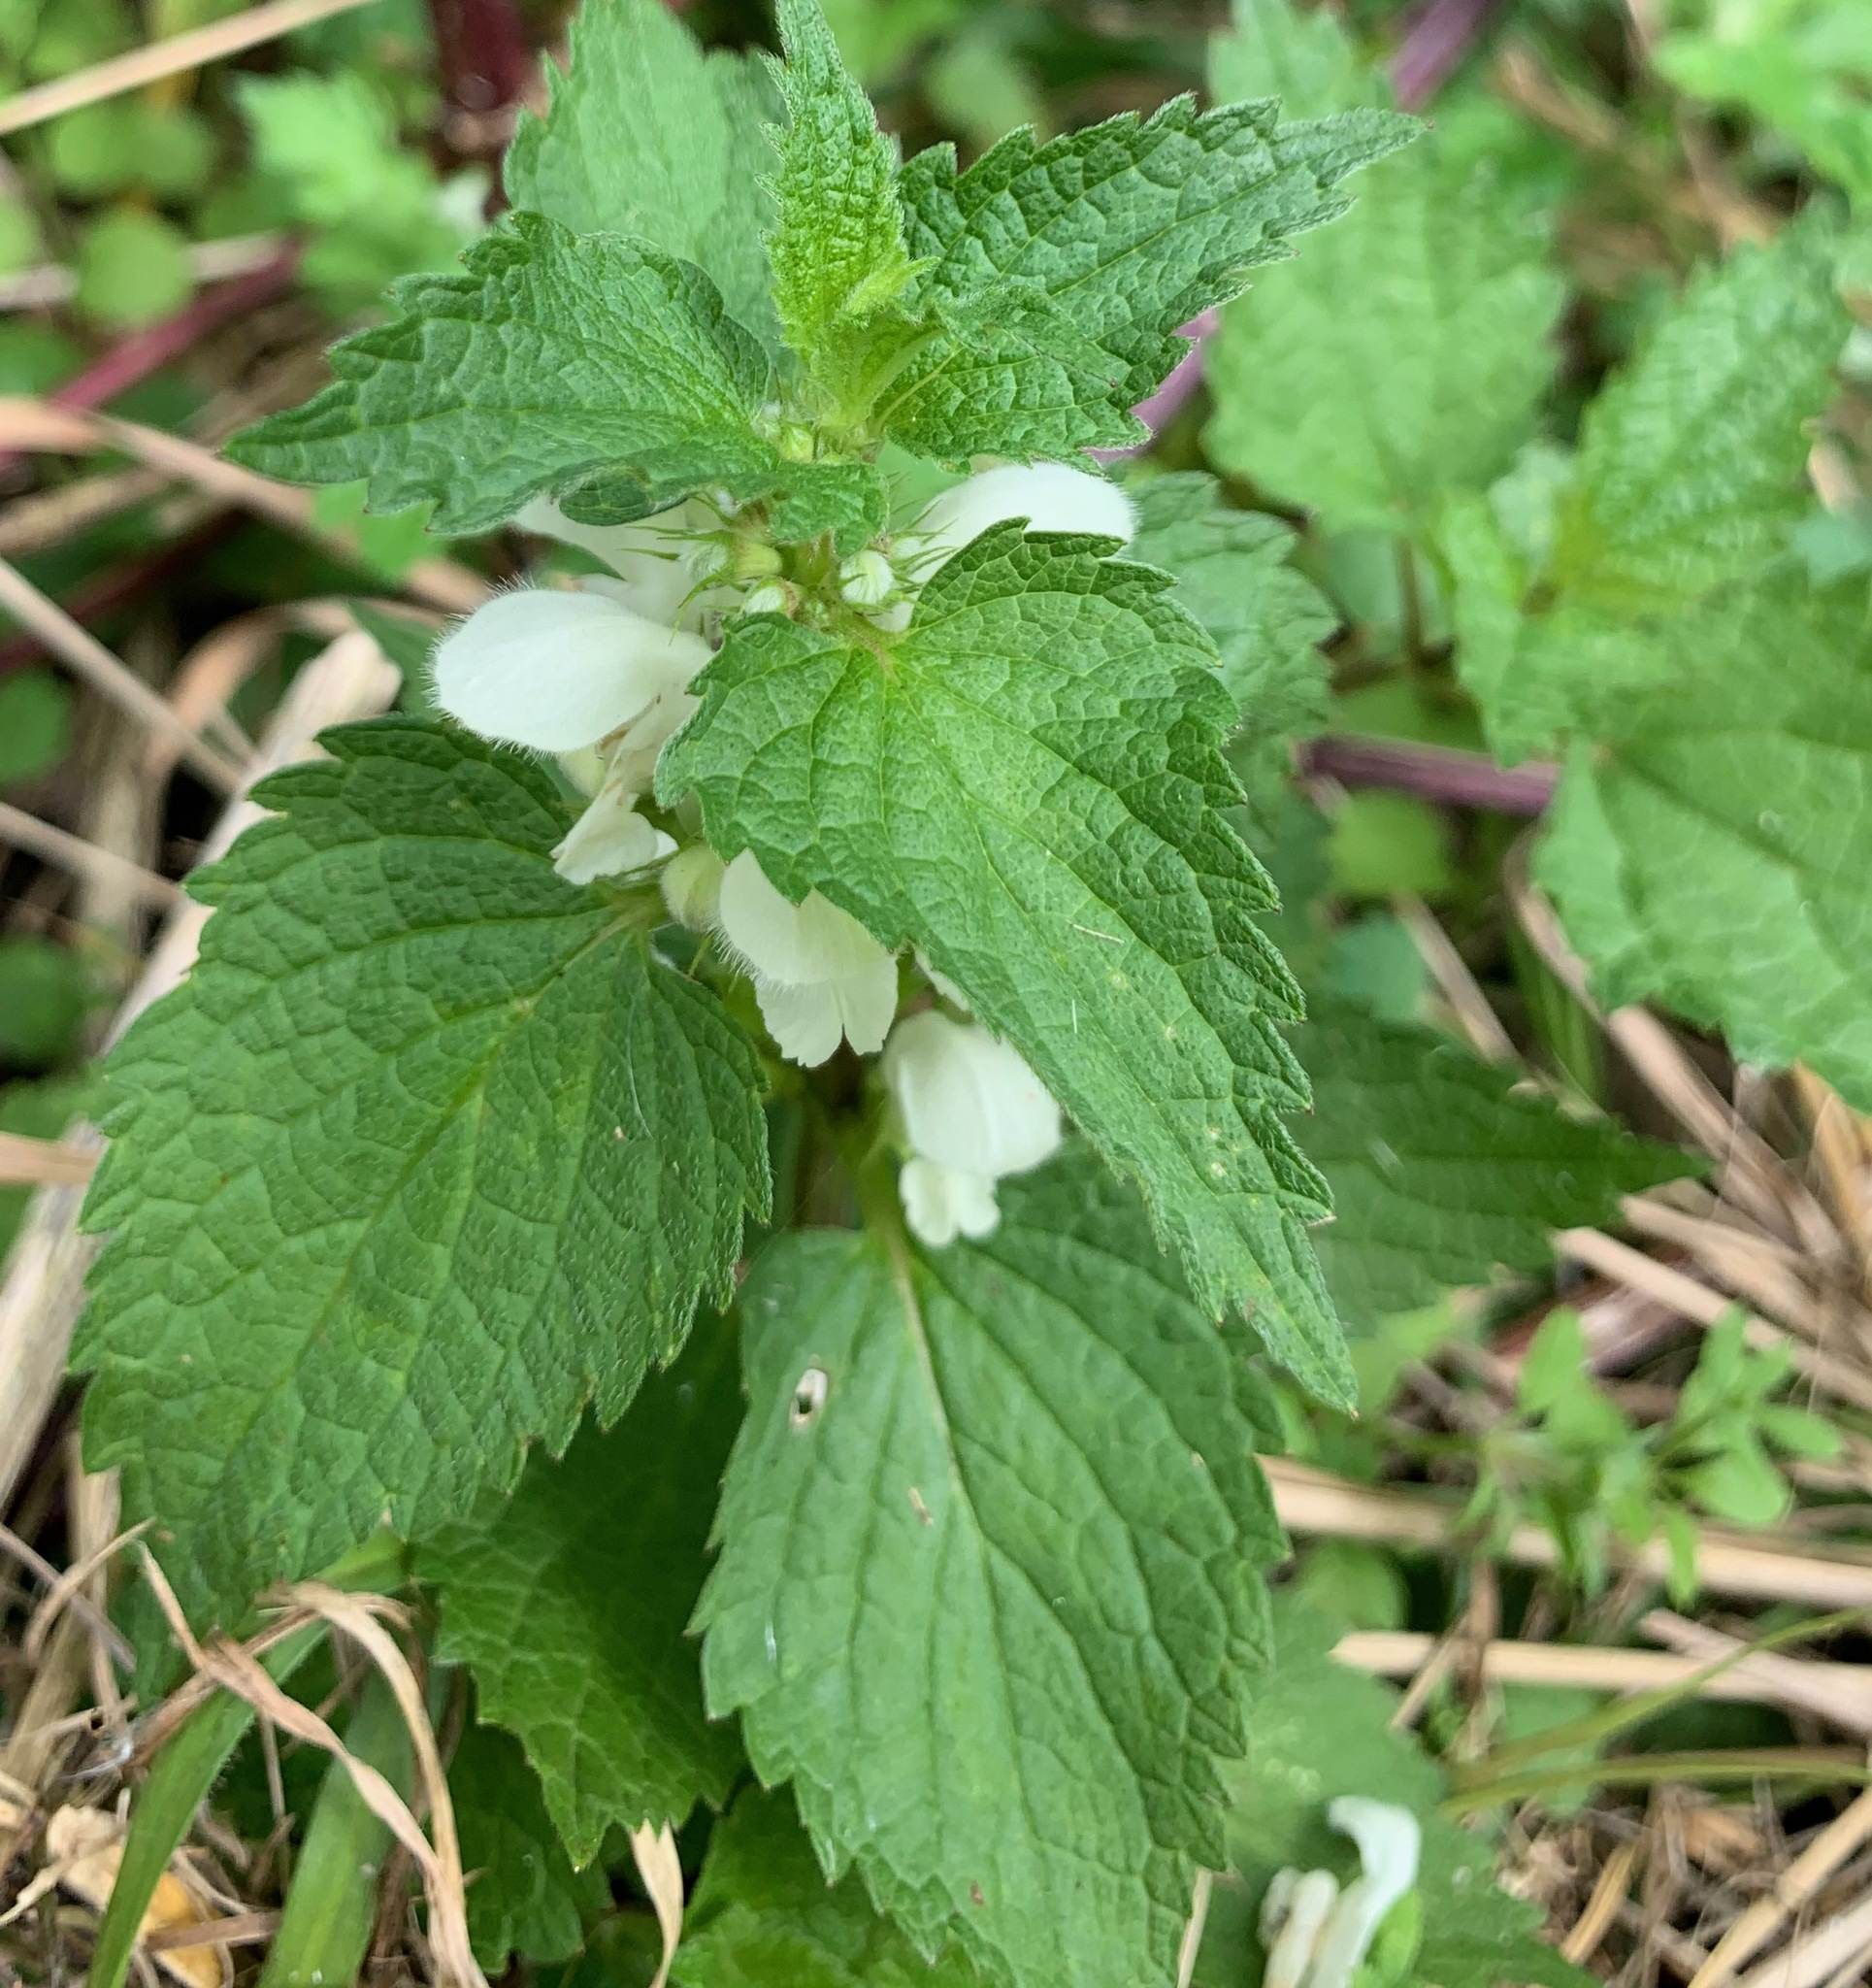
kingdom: Plantae
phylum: Tracheophyta
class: Magnoliopsida
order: Lamiales
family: Lamiaceae
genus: Lamium
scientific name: Lamium album
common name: White dead-nettle
